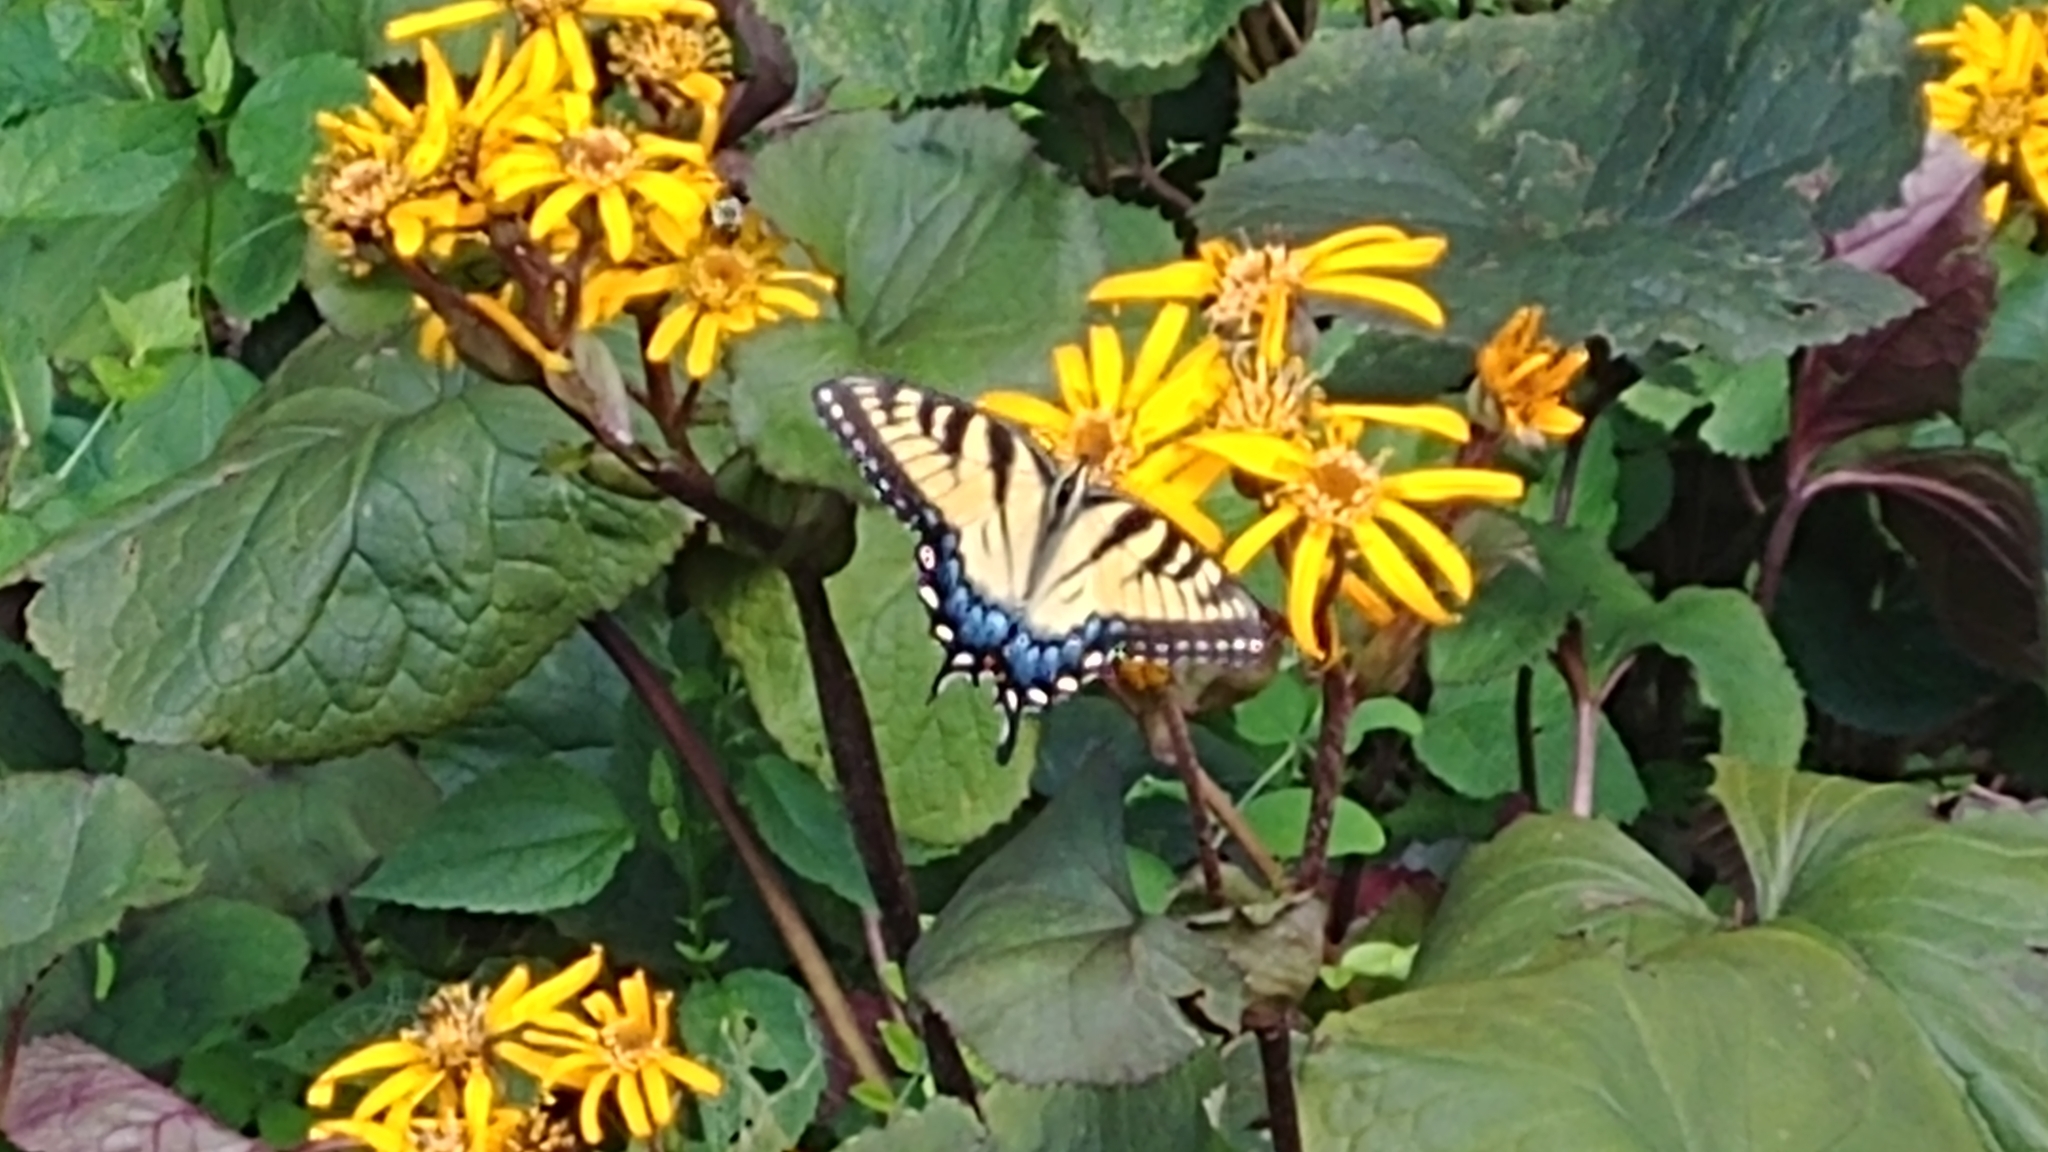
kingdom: Animalia
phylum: Arthropoda
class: Insecta
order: Lepidoptera
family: Papilionidae
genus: Papilio
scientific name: Papilio glaucus
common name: Tiger swallowtail
